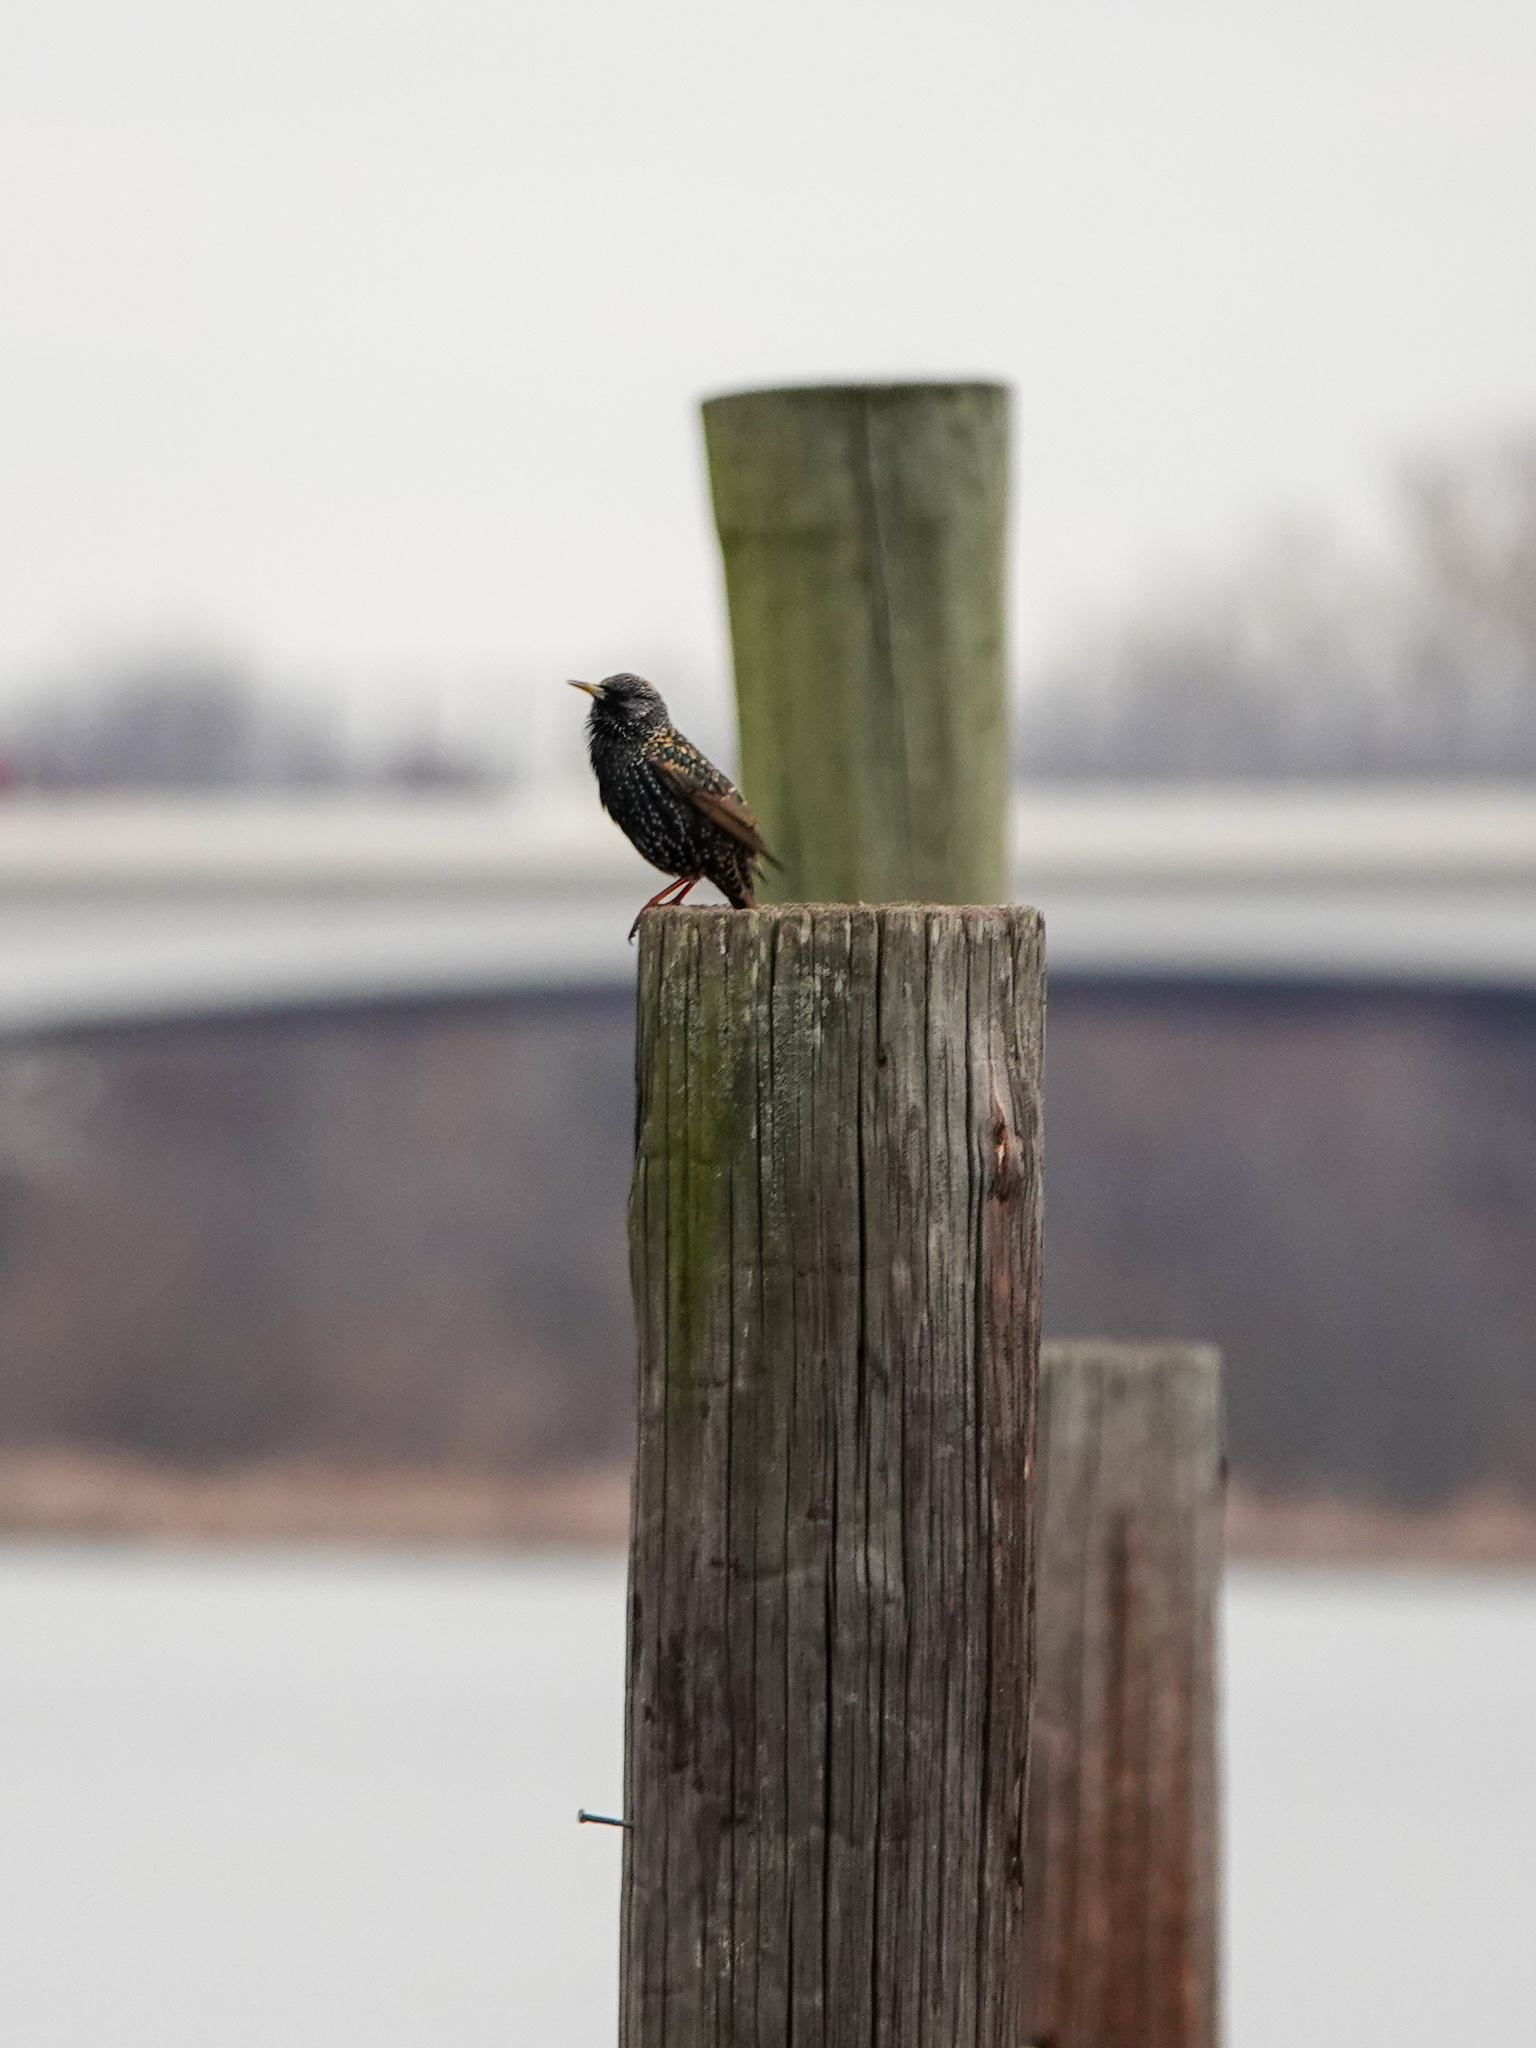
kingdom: Animalia
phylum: Chordata
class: Aves
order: Passeriformes
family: Sturnidae
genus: Sturnus
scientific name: Sturnus vulgaris
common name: Common starling
